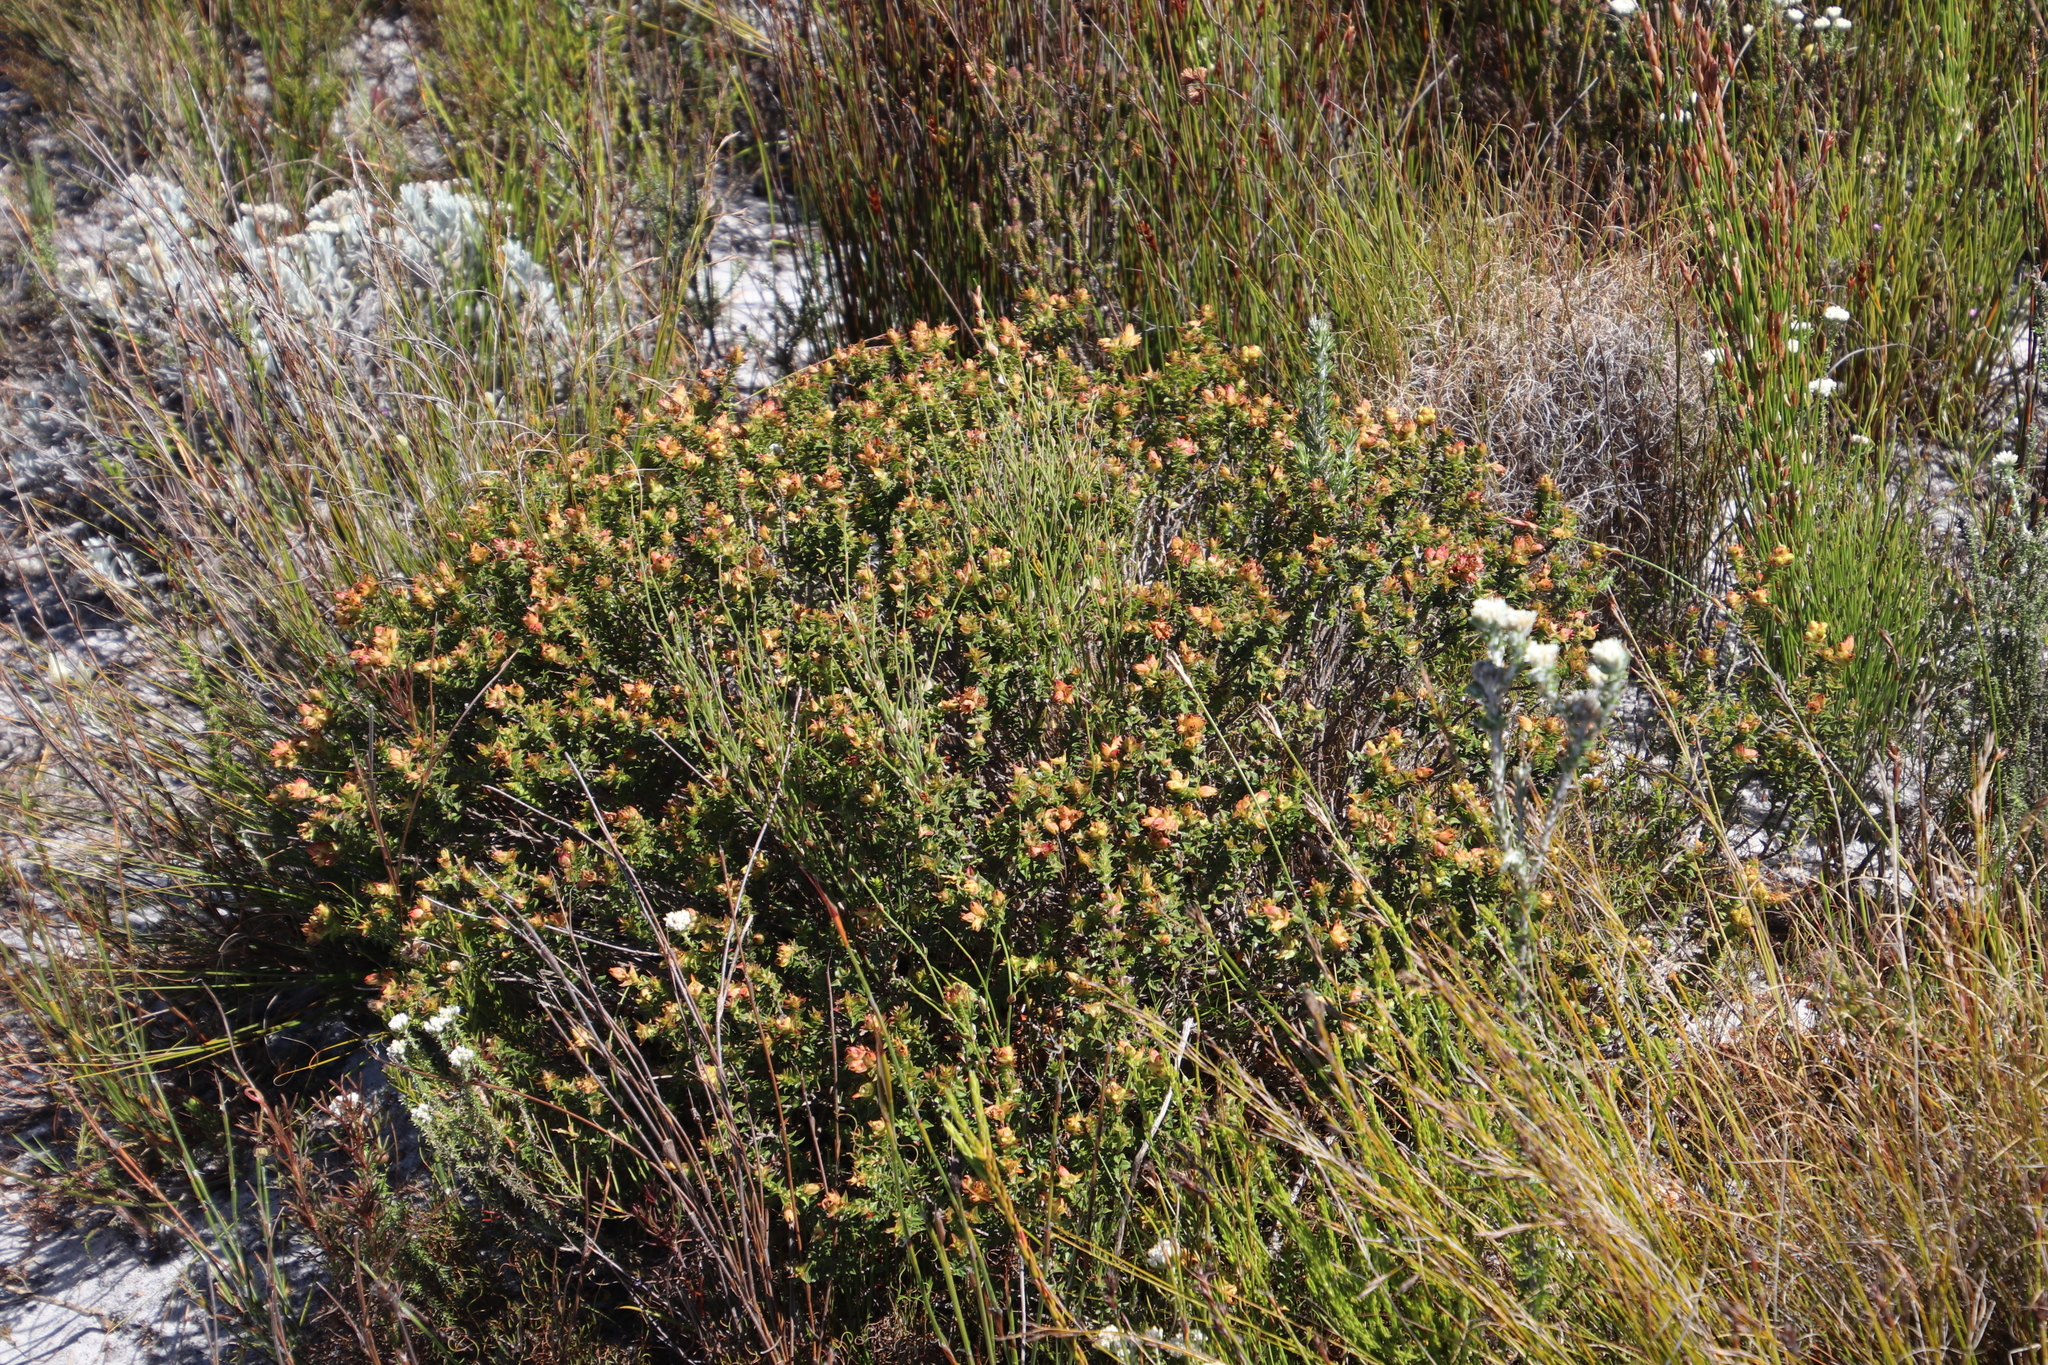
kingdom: Plantae
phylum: Tracheophyta
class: Magnoliopsida
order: Myrtales
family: Penaeaceae
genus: Penaea
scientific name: Penaea mucronata
